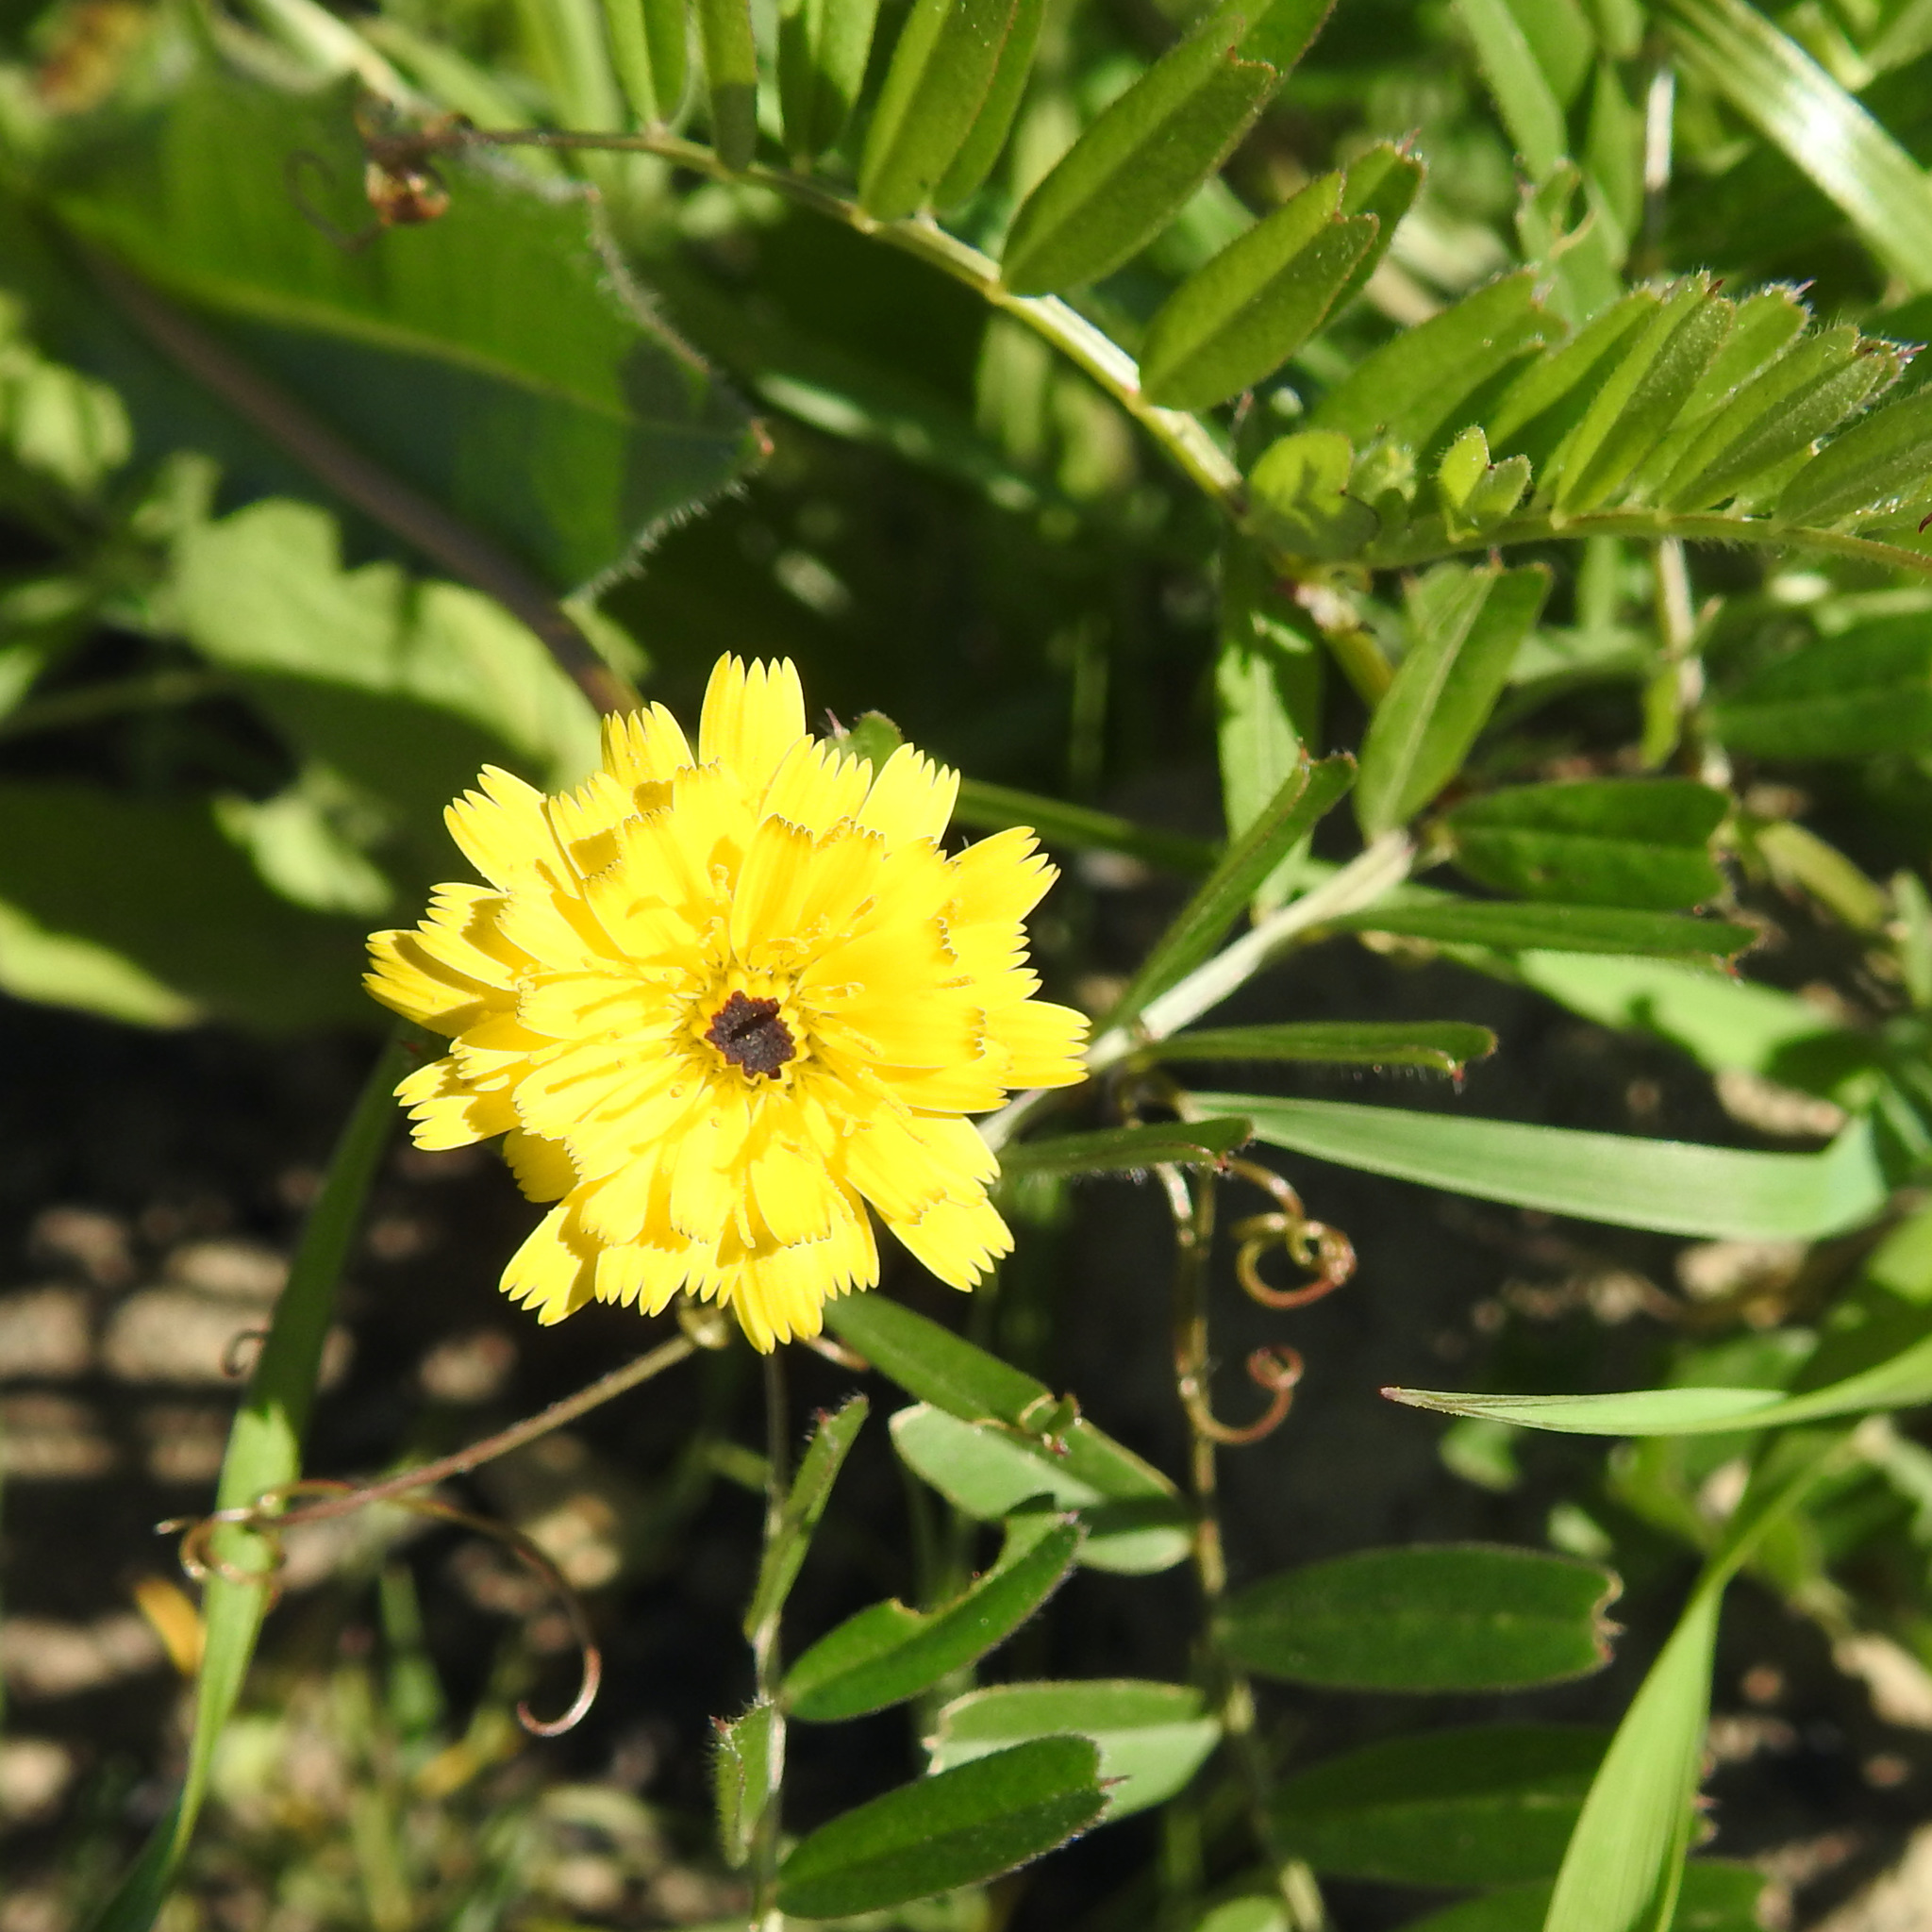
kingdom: Plantae
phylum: Tracheophyta
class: Magnoliopsida
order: Asterales
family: Asteraceae
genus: Hedypnois
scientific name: Hedypnois rhagadioloides
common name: Cretan weed
